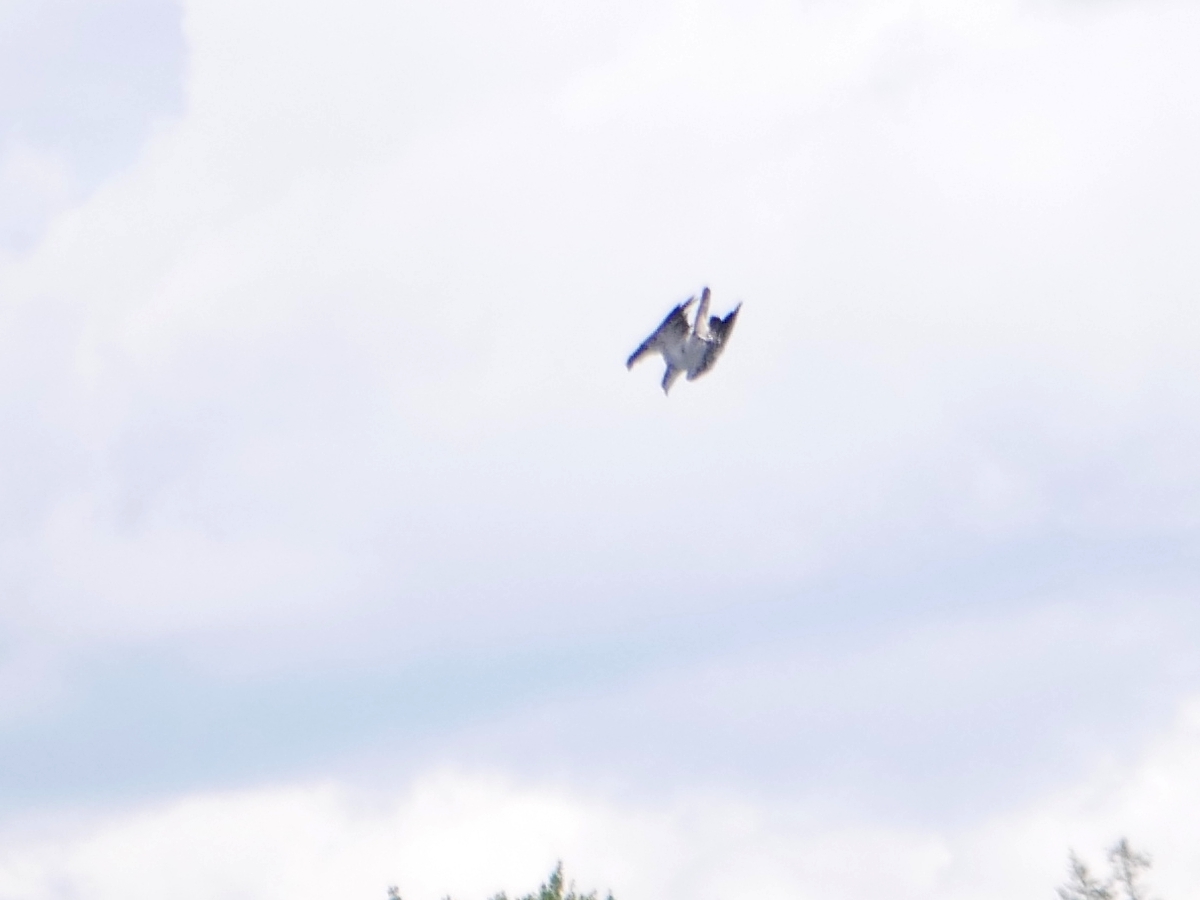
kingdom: Animalia
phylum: Chordata
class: Aves
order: Accipitriformes
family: Pandionidae
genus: Pandion
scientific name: Pandion haliaetus
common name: Osprey
